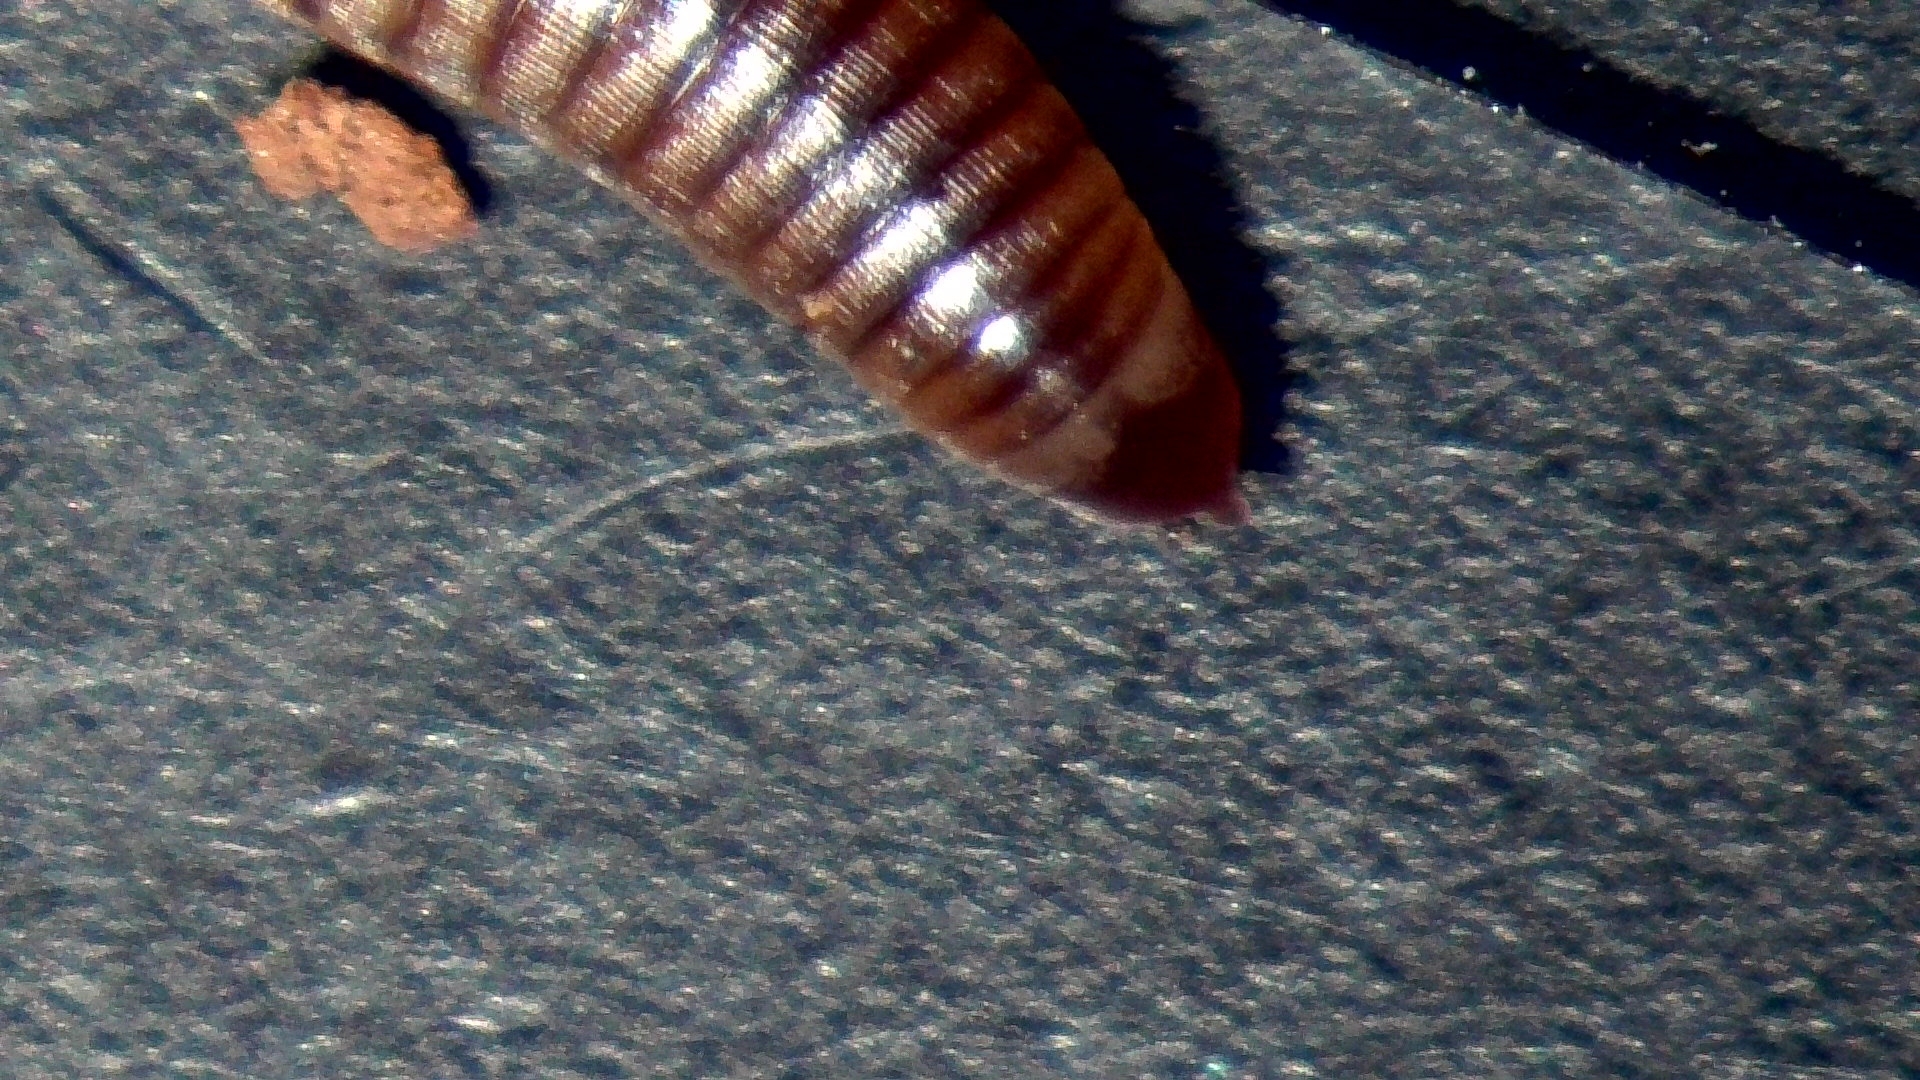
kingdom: Animalia
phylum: Arthropoda
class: Diplopoda
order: Julida
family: Julidae
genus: Cylindroiulus
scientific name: Cylindroiulus punctatus
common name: Blunt-tailed millipede
